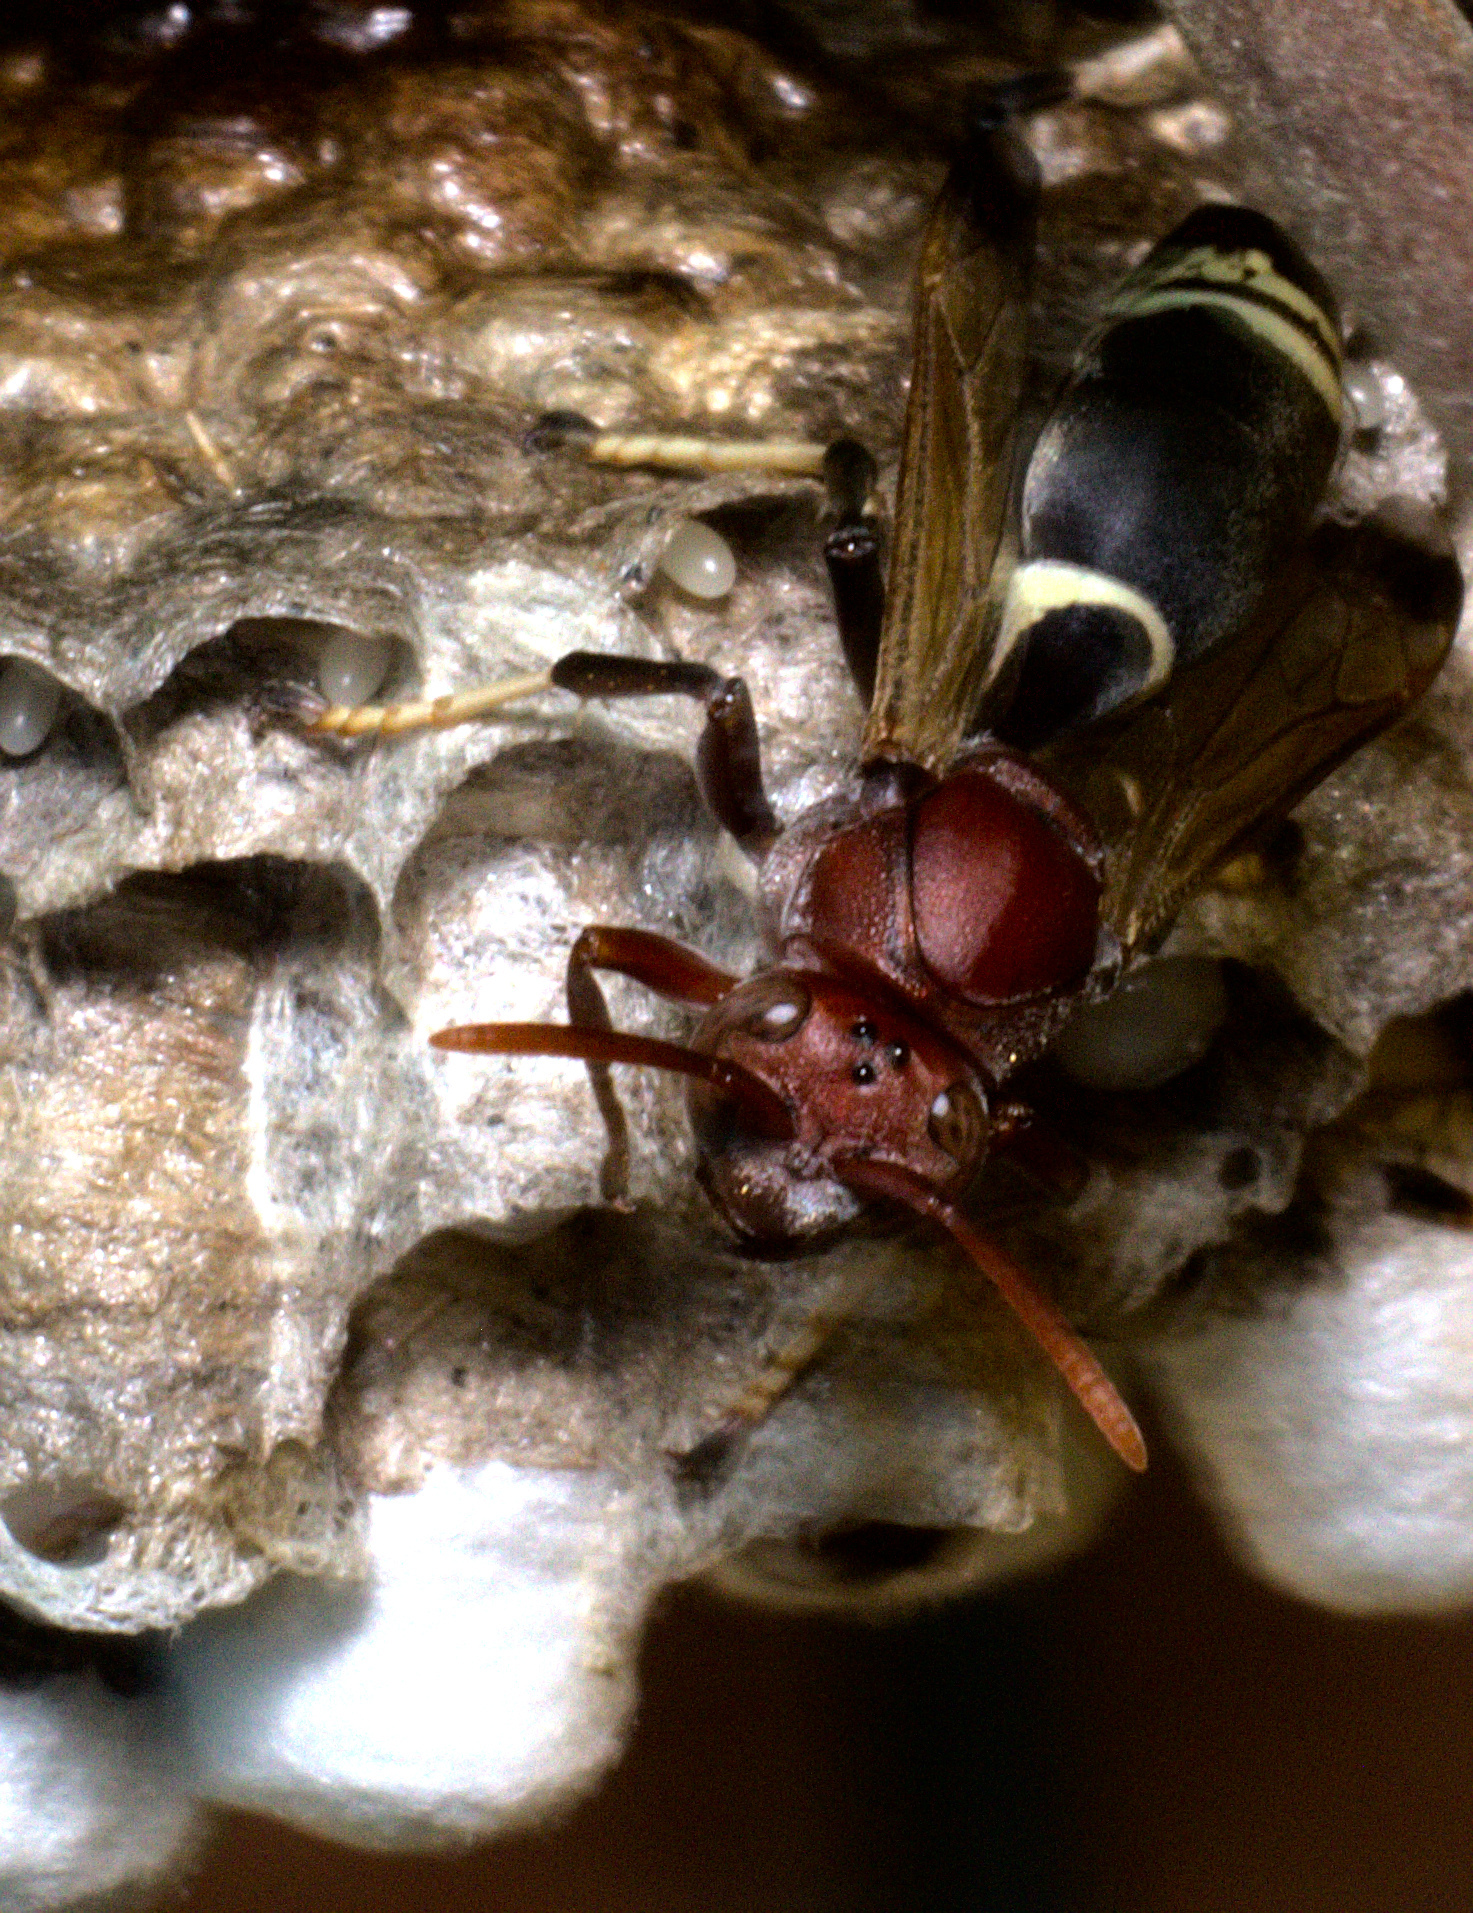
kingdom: Animalia
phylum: Arthropoda
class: Insecta
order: Hymenoptera
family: Eumenidae
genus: Polistes
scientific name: Polistes brunus
